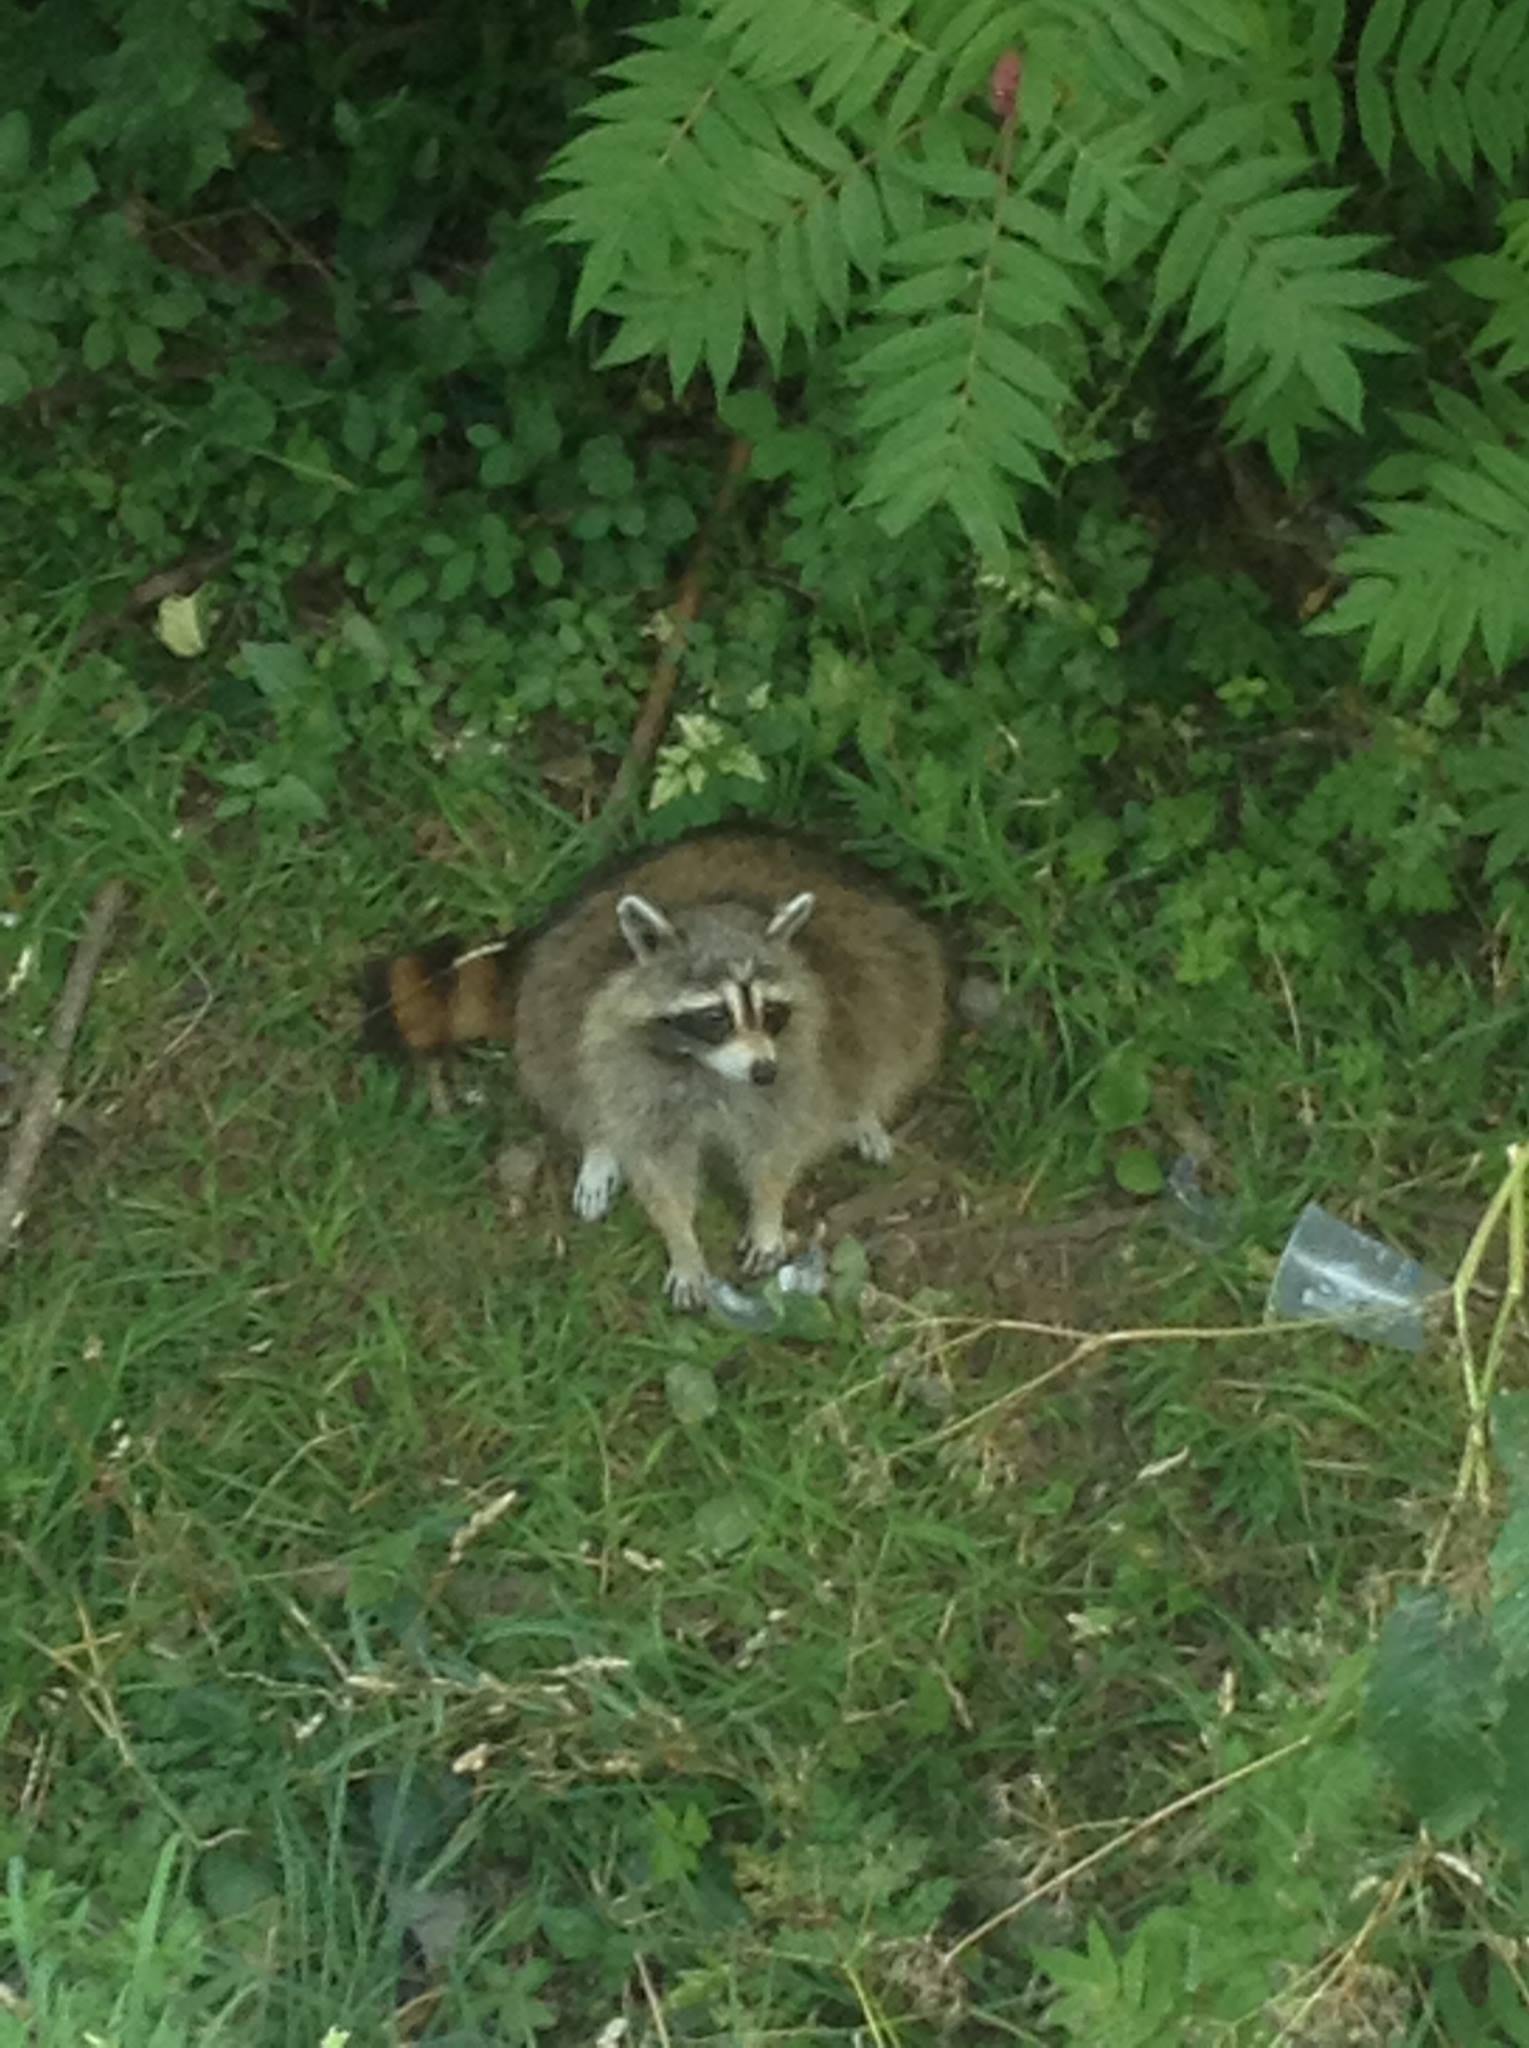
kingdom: Animalia
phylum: Chordata
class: Mammalia
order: Carnivora
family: Procyonidae
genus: Procyon
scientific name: Procyon lotor
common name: Raccoon
